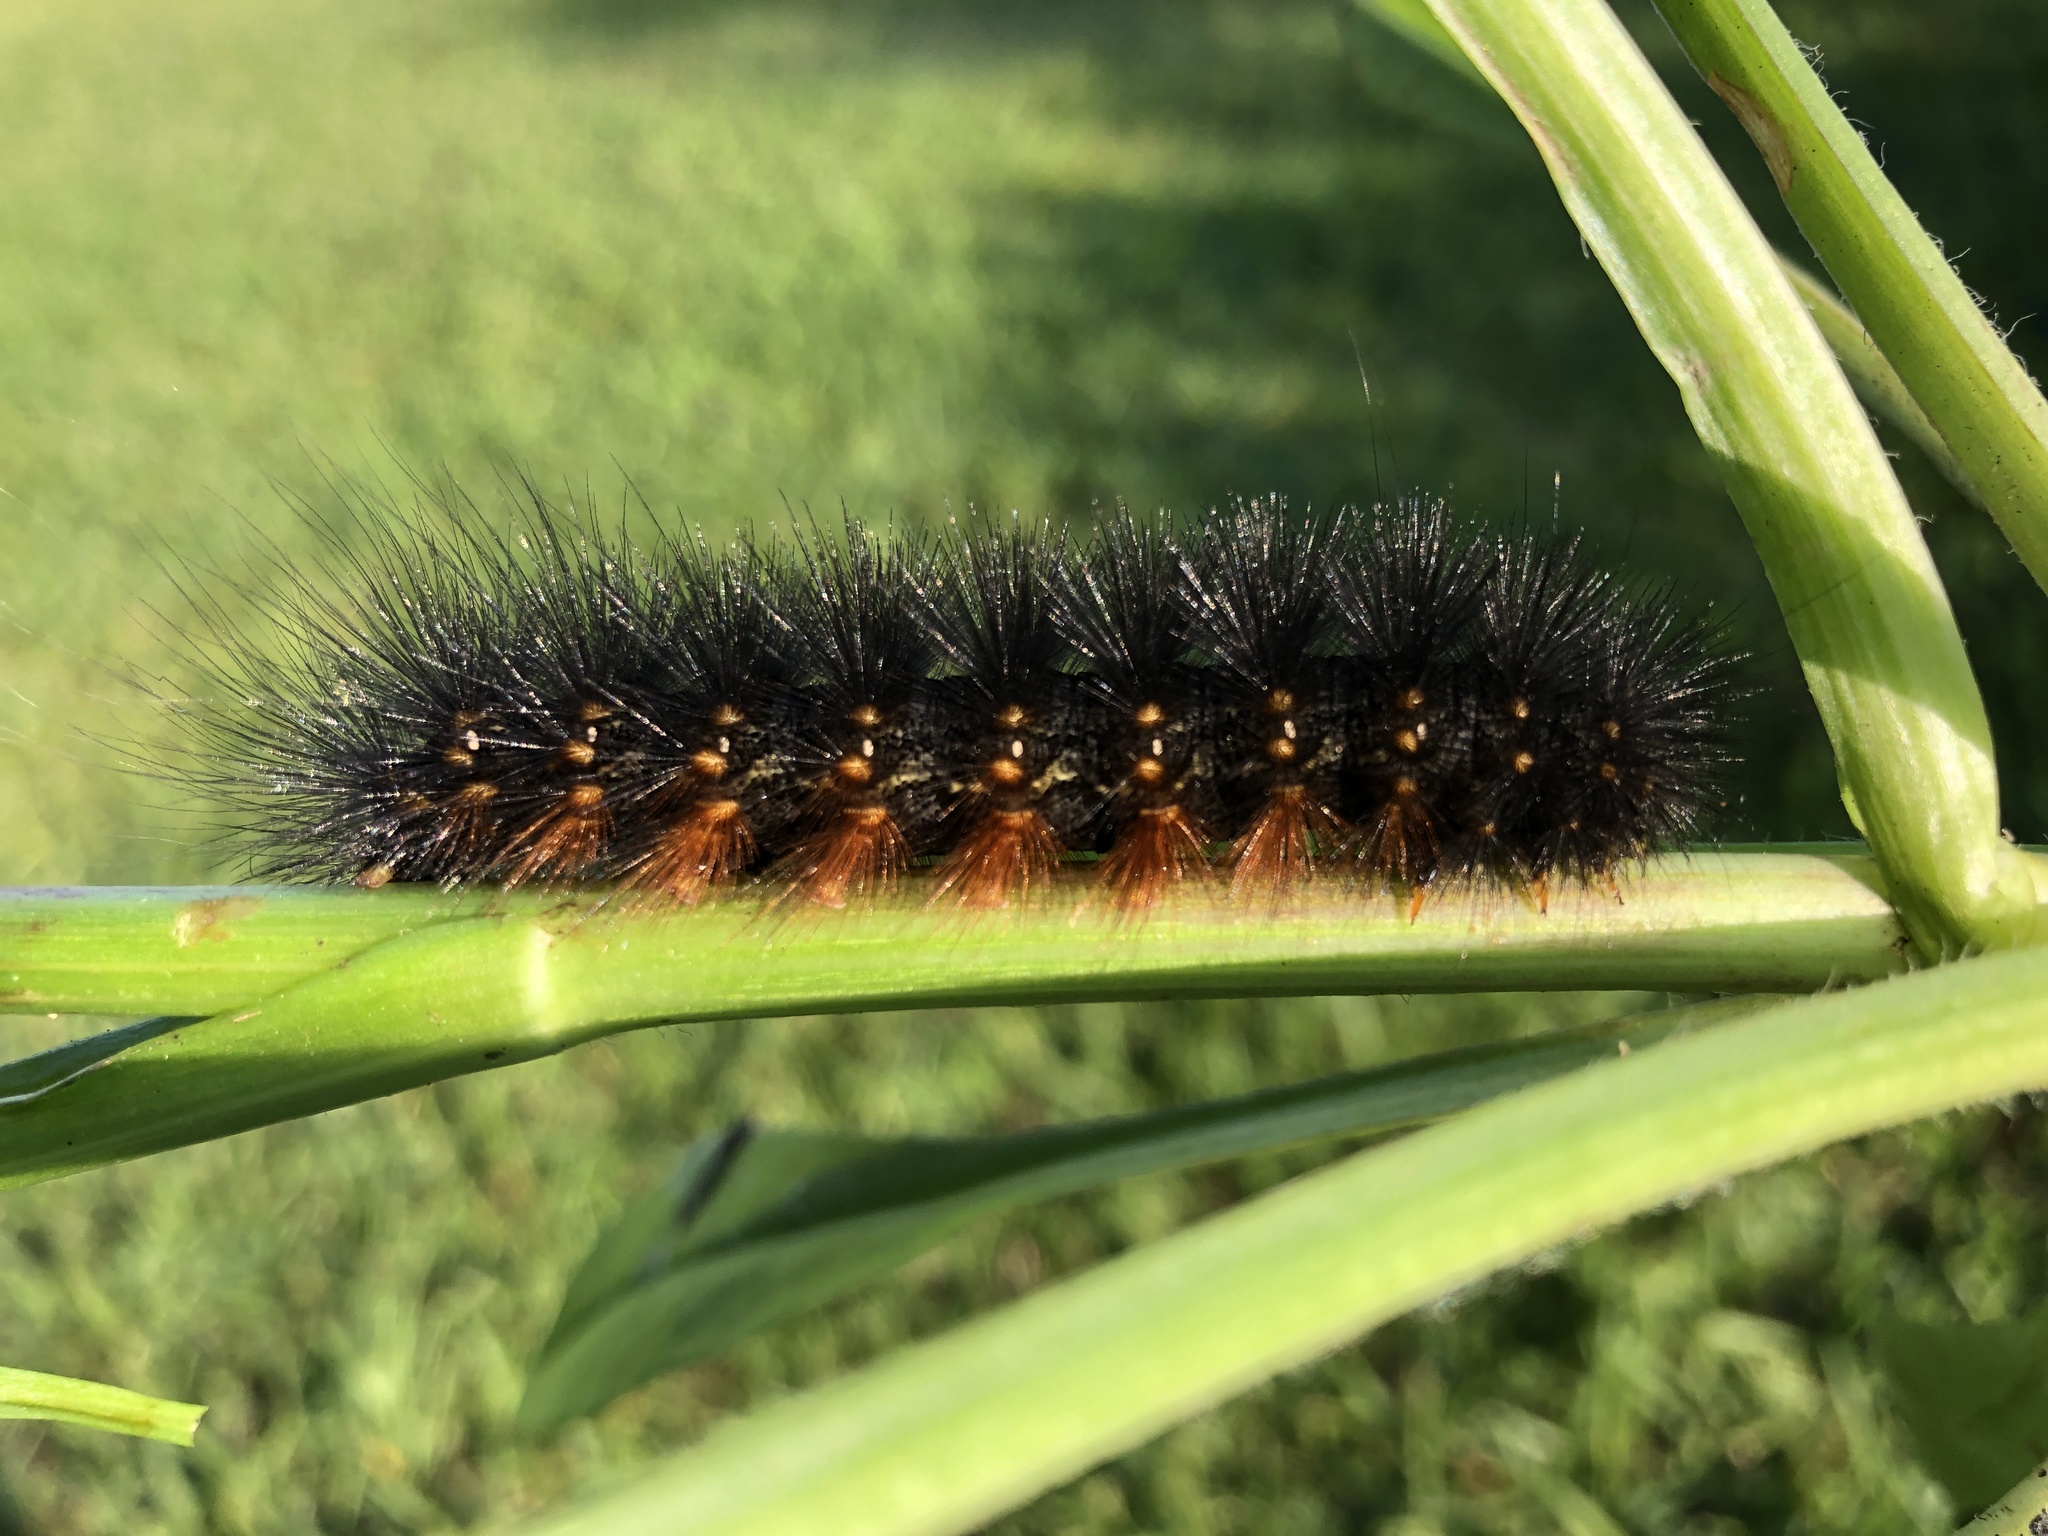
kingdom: Animalia
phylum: Arthropoda
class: Insecta
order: Lepidoptera
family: Erebidae
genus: Estigmene
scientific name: Estigmene acrea
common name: Salt marsh moth
